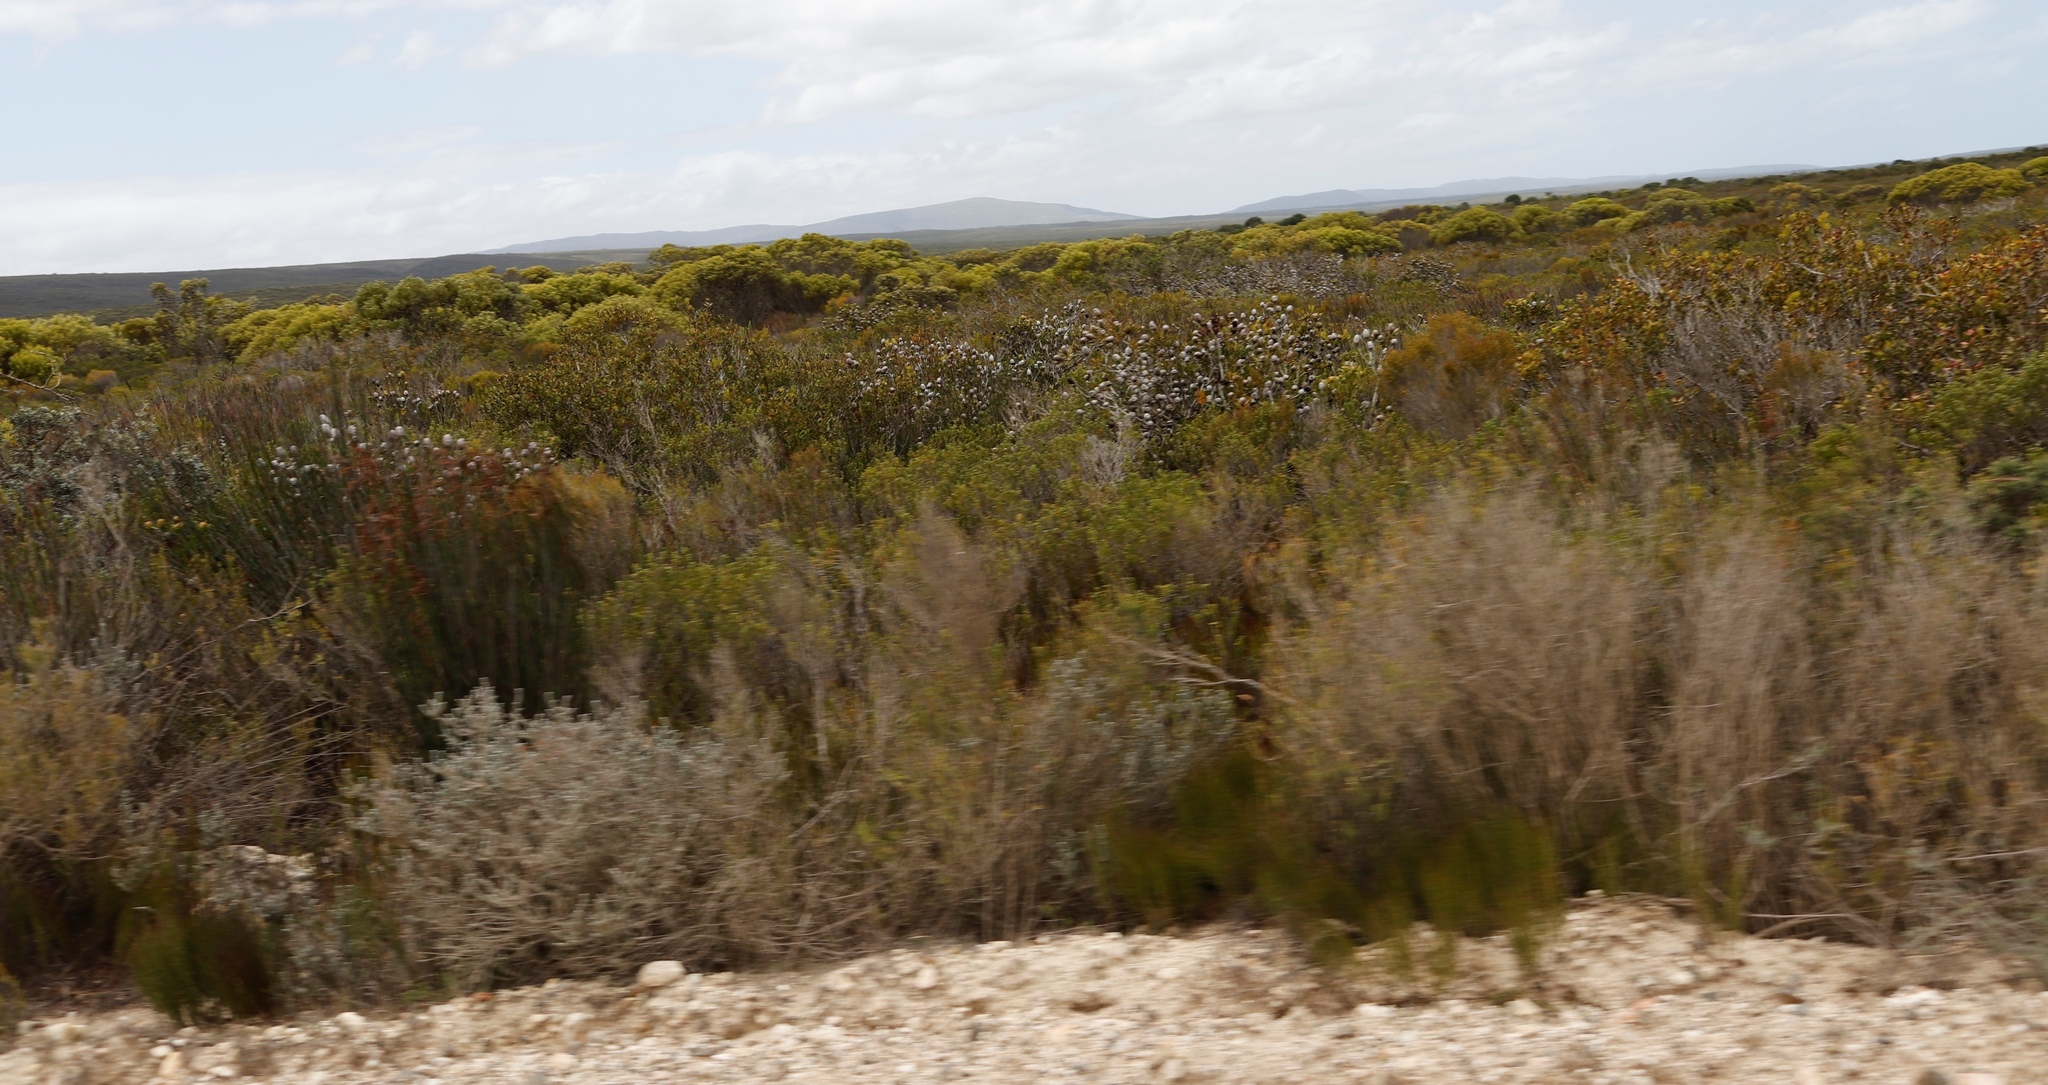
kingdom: Plantae
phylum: Tracheophyta
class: Magnoliopsida
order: Proteales
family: Proteaceae
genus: Leucadendron
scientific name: Leucadendron muirii
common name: Silver-ball conebush
